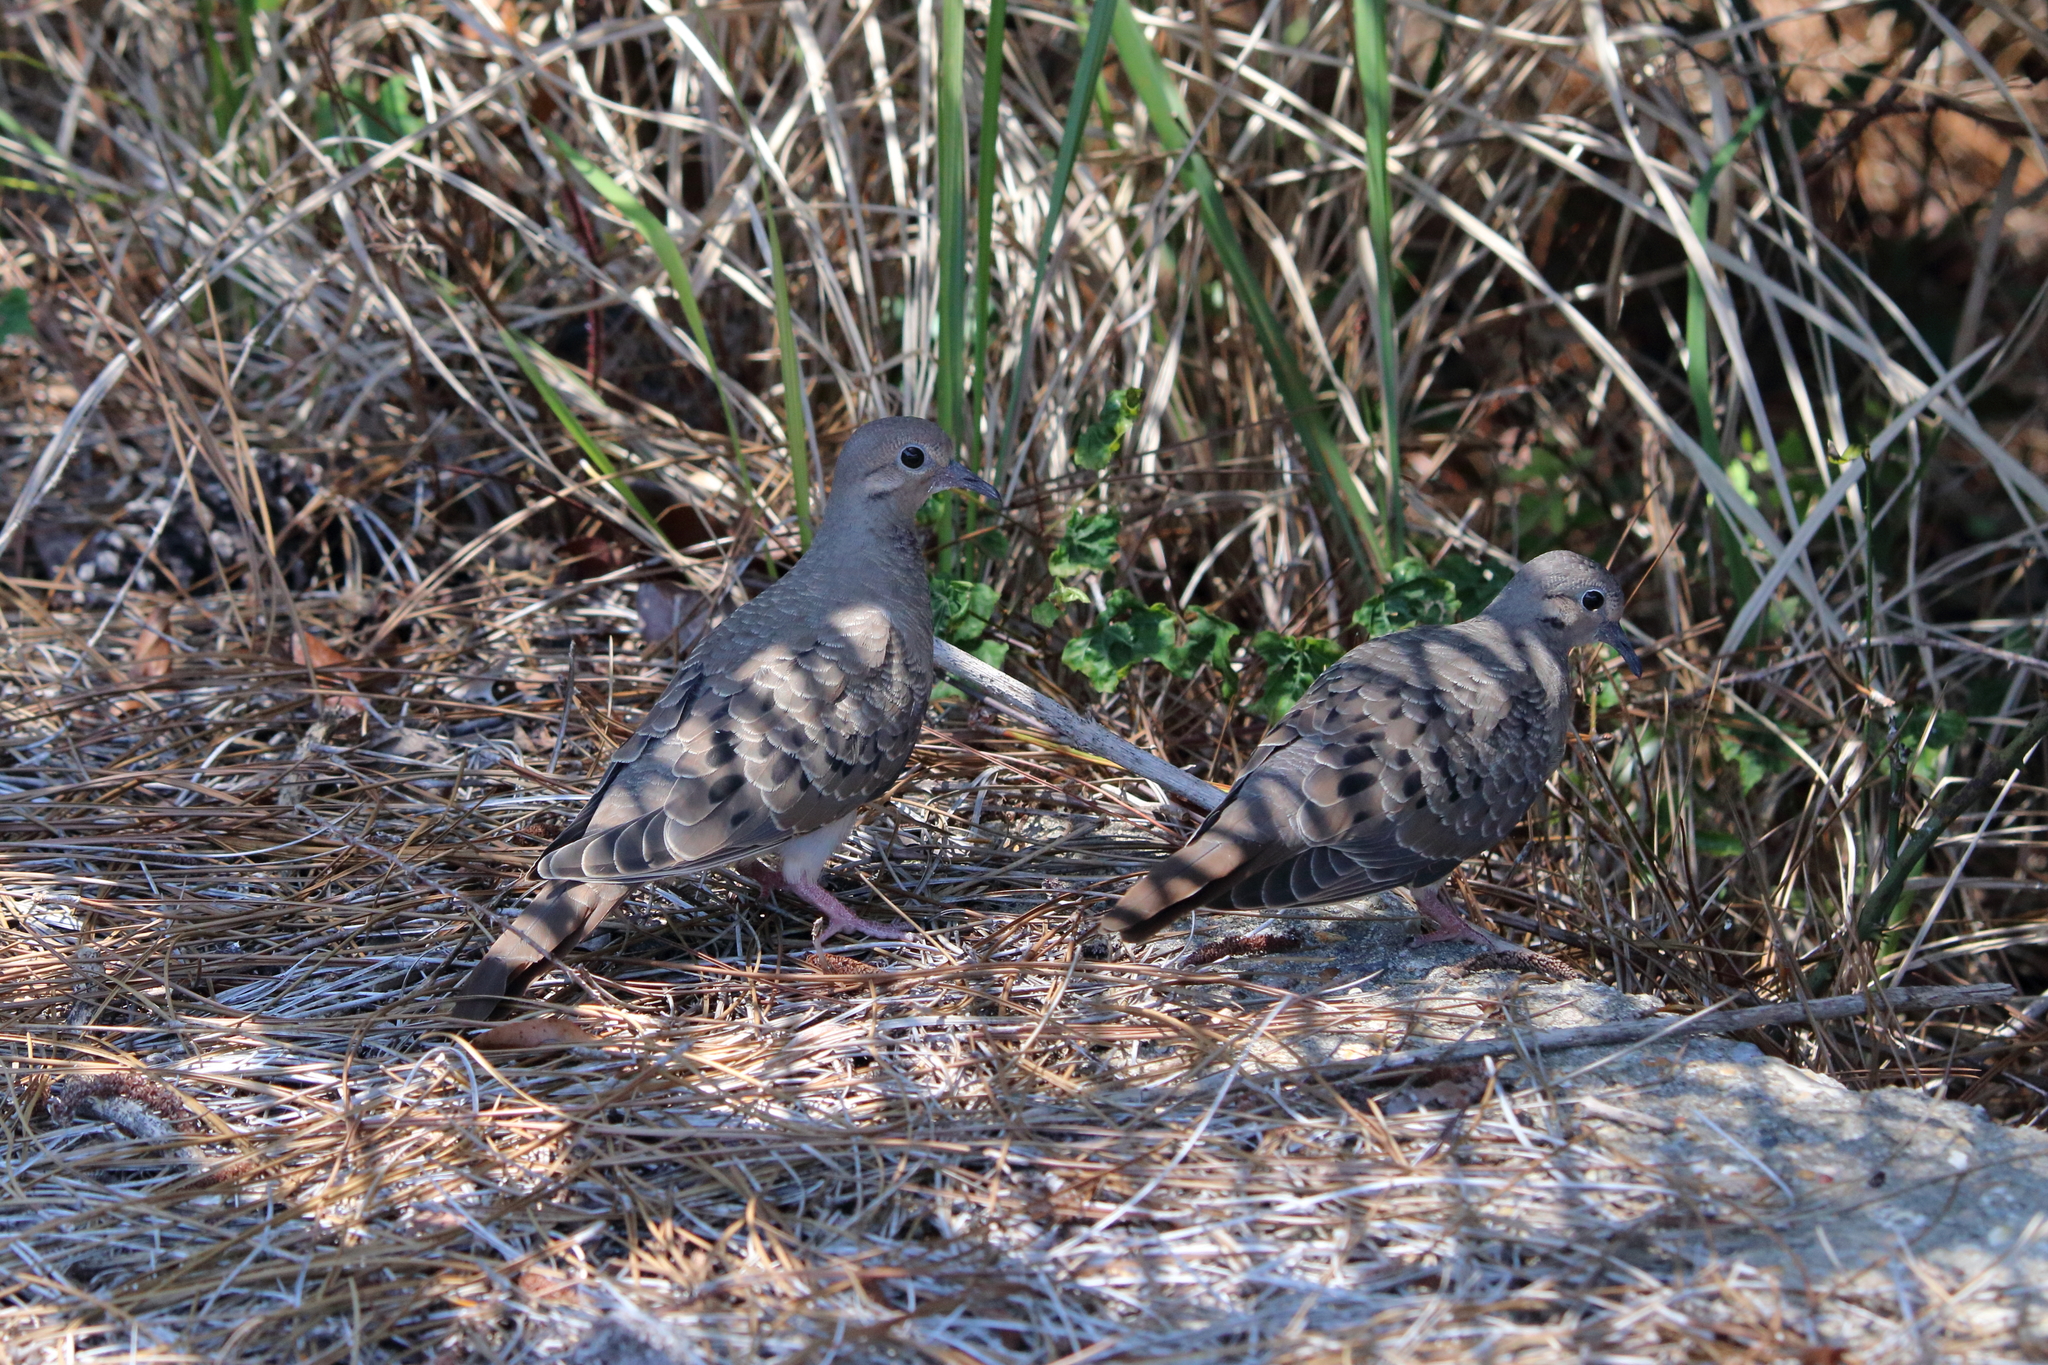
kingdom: Animalia
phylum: Chordata
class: Aves
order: Columbiformes
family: Columbidae
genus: Zenaida
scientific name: Zenaida macroura
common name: Mourning dove
